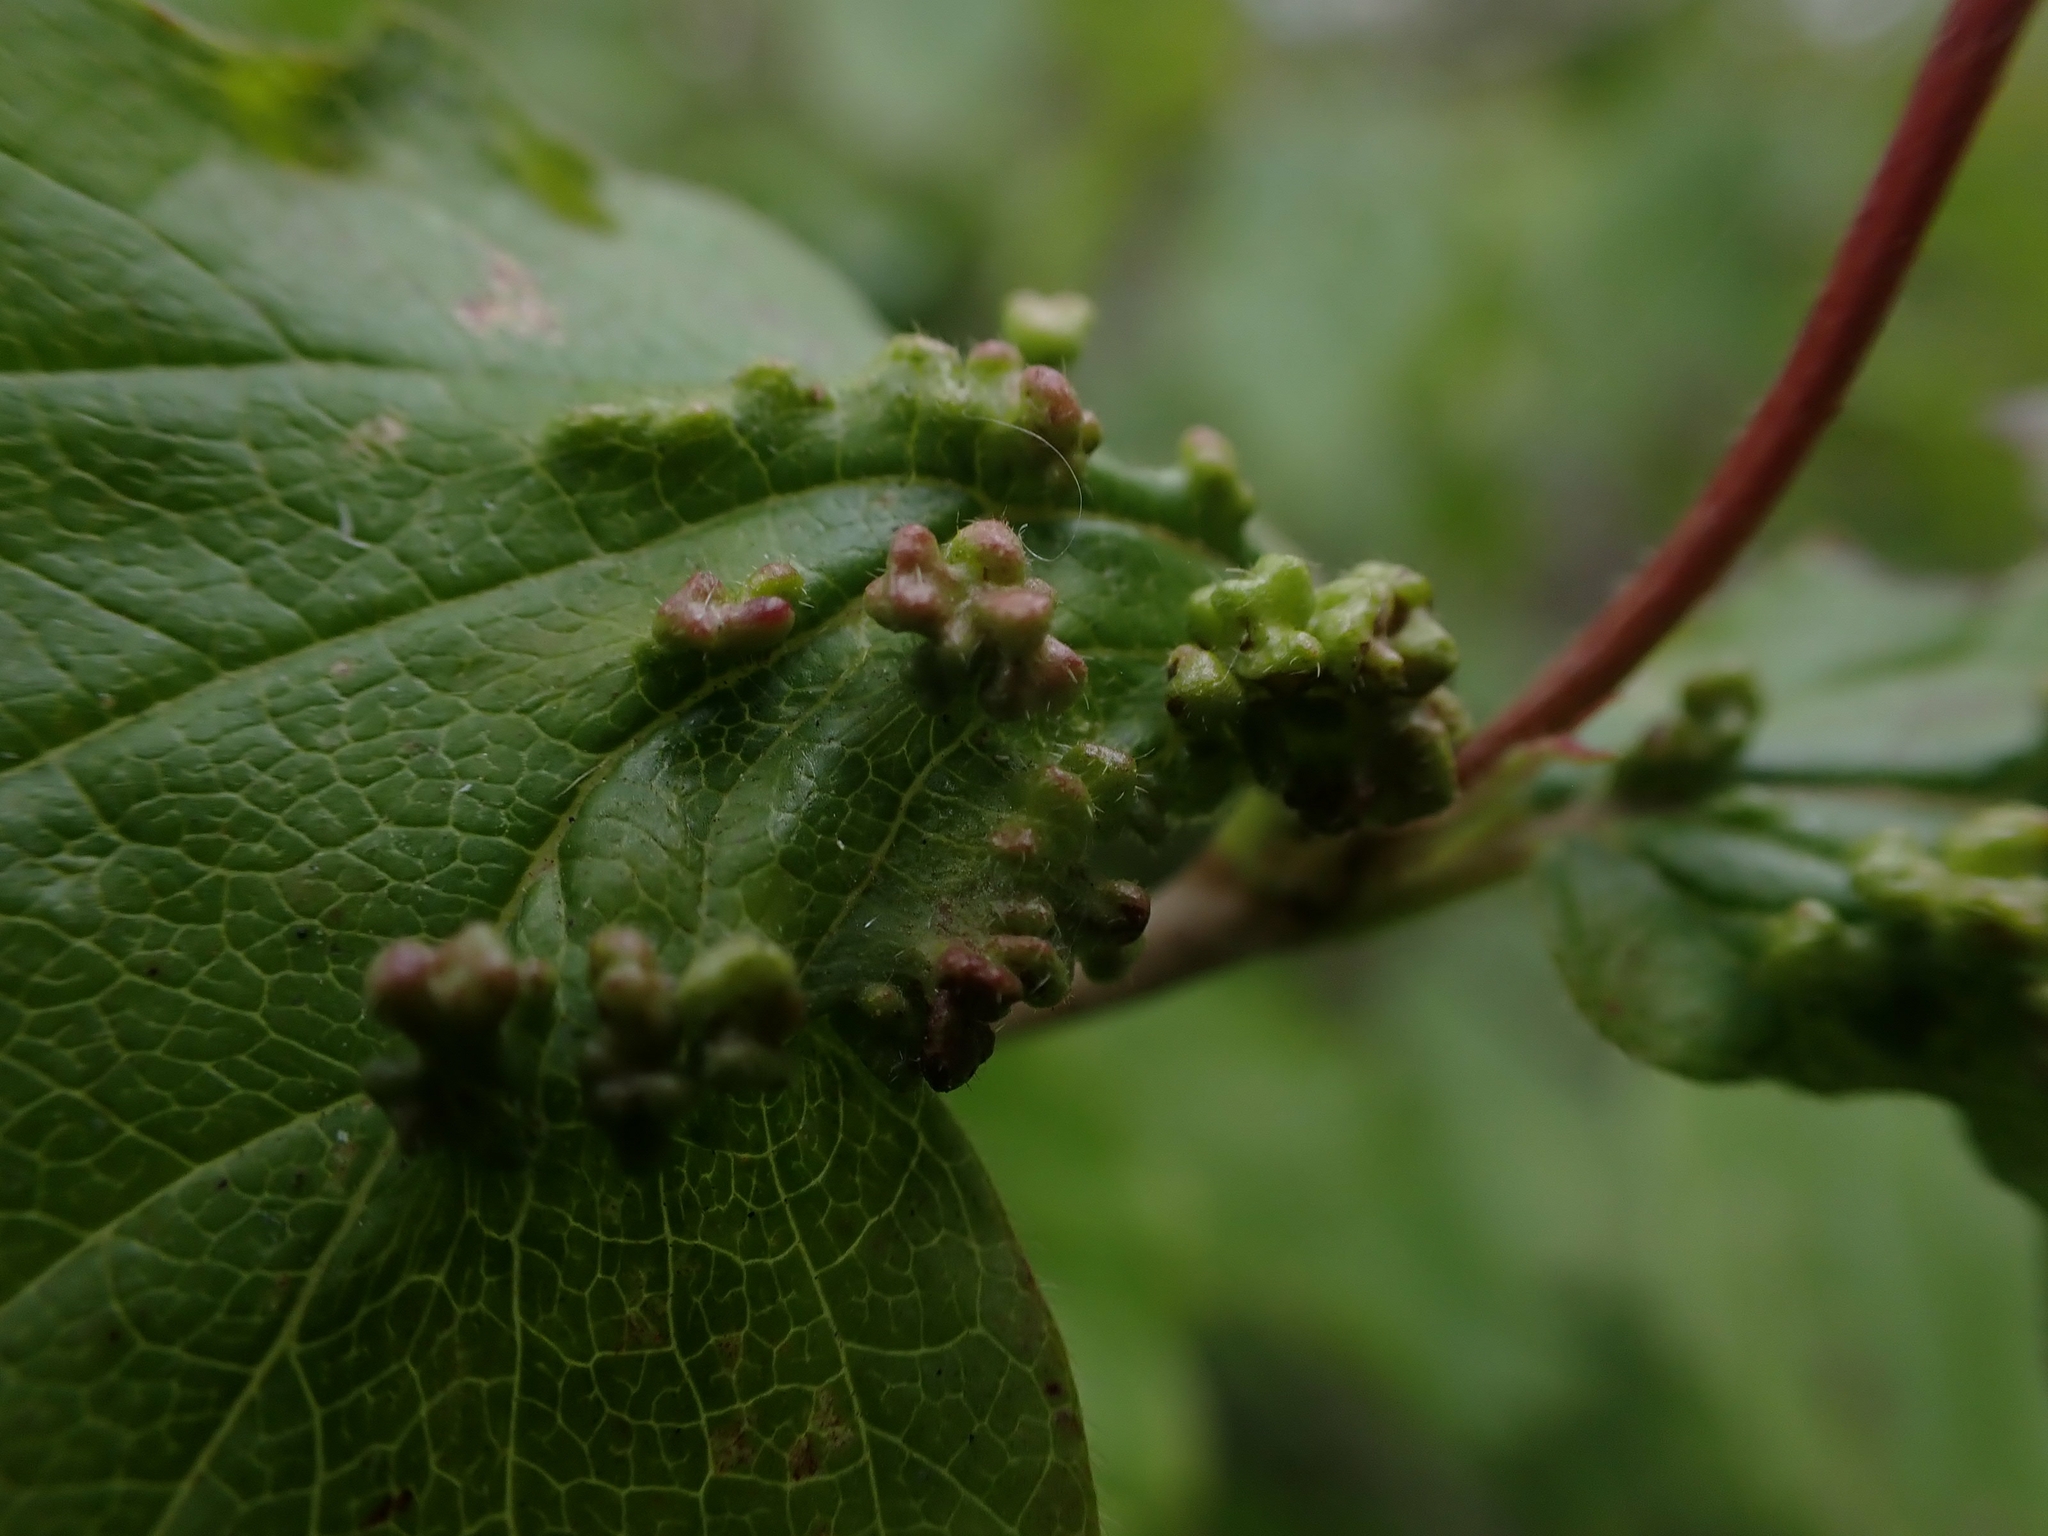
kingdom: Animalia
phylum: Arthropoda
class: Arachnida
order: Trombidiformes
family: Eriophyidae
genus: Eriophyes
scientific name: Eriophyes
